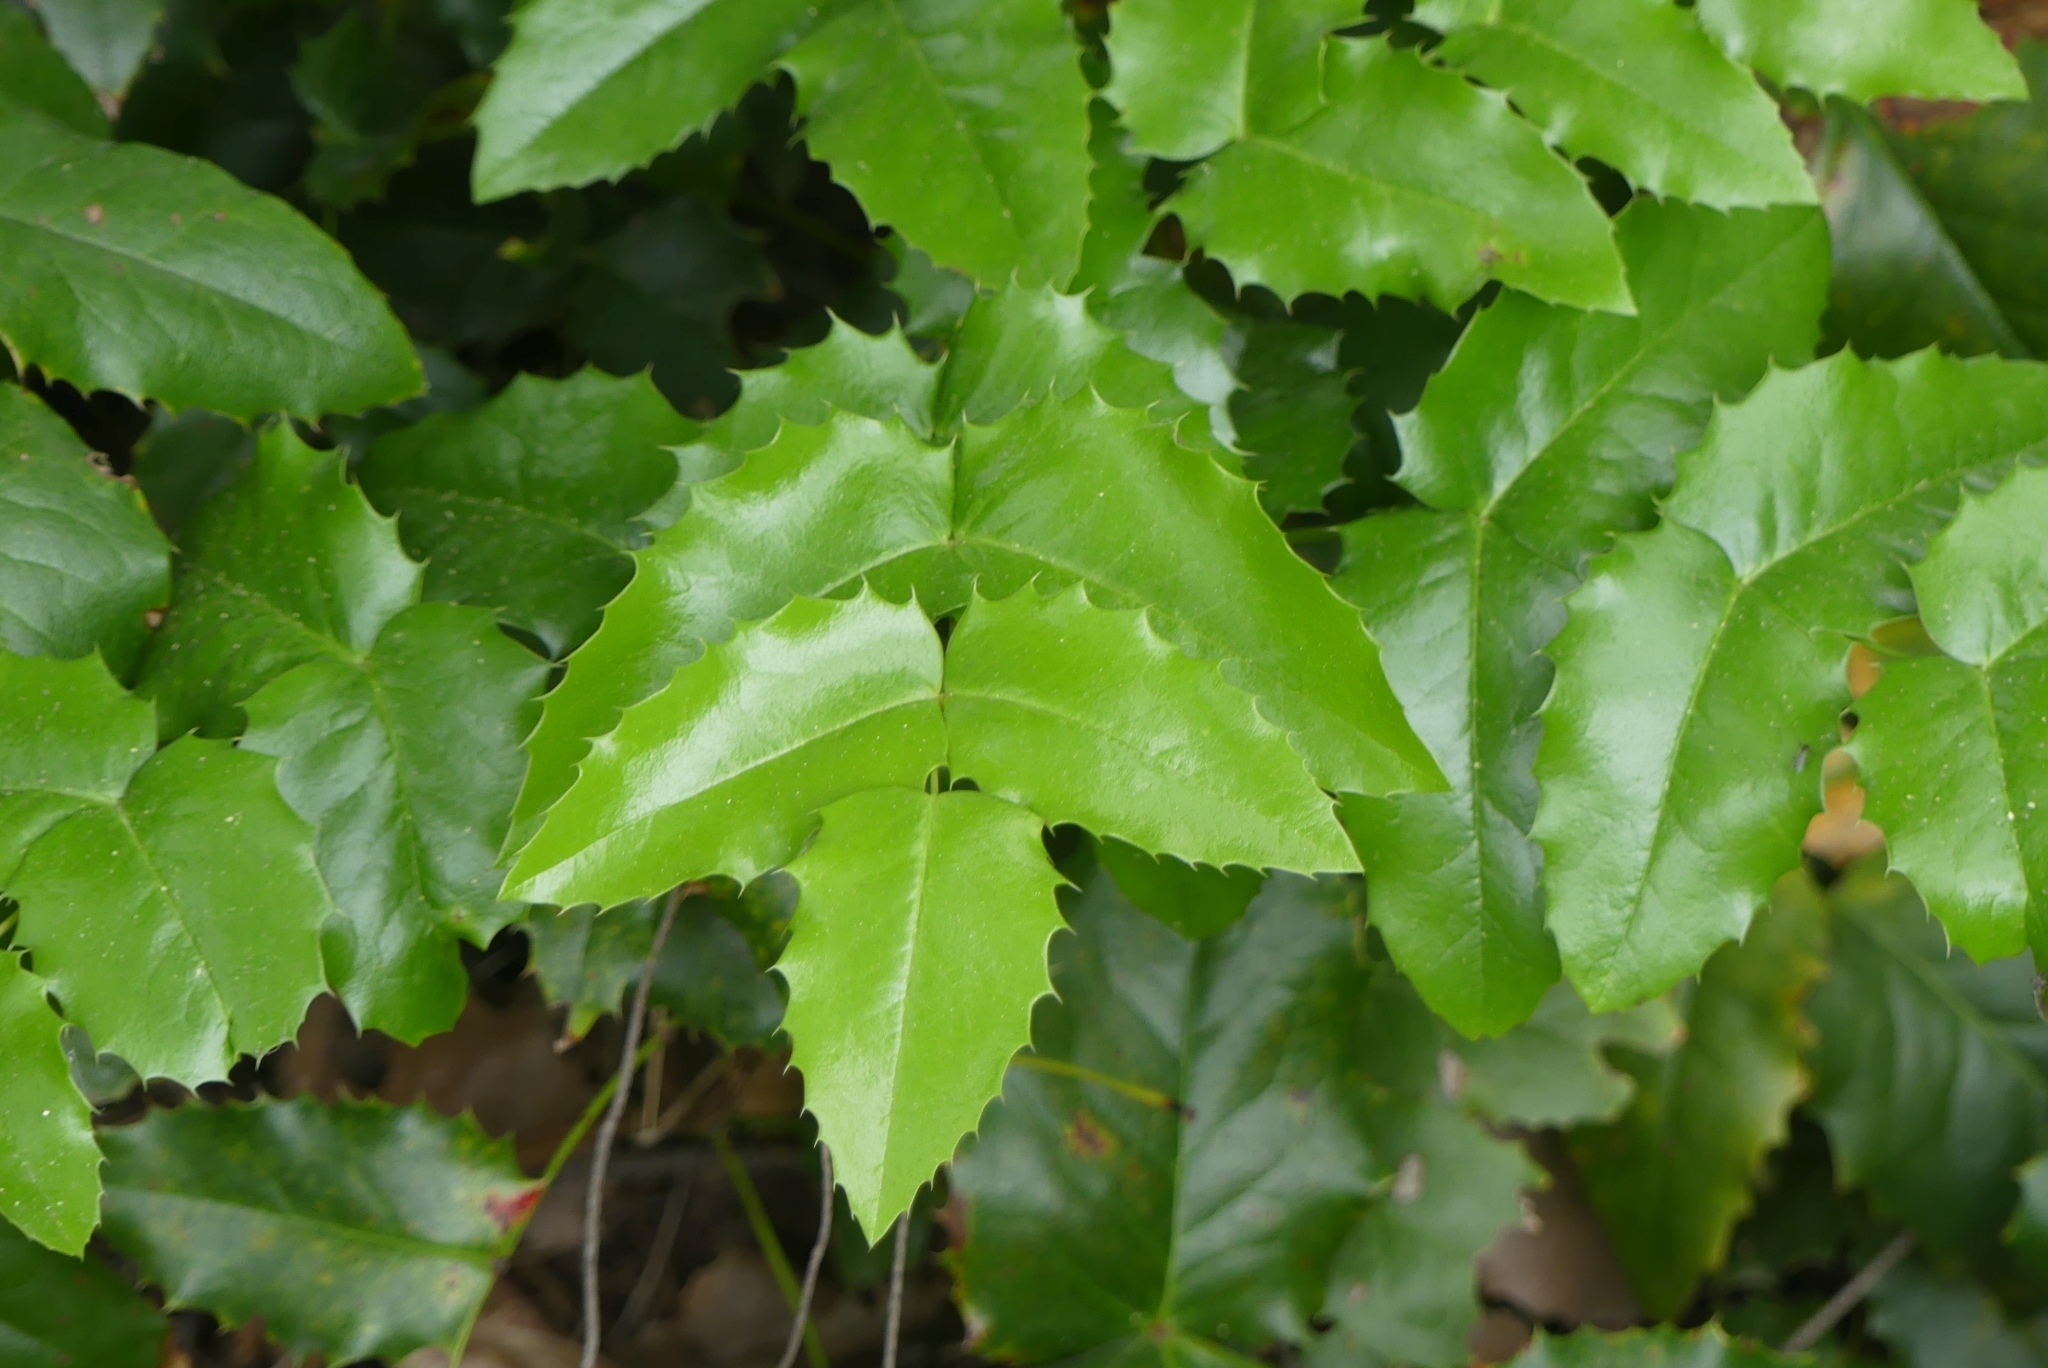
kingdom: Plantae
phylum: Tracheophyta
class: Magnoliopsida
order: Ranunculales
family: Berberidaceae
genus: Mahonia
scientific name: Mahonia aquifolium
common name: Oregon-grape
